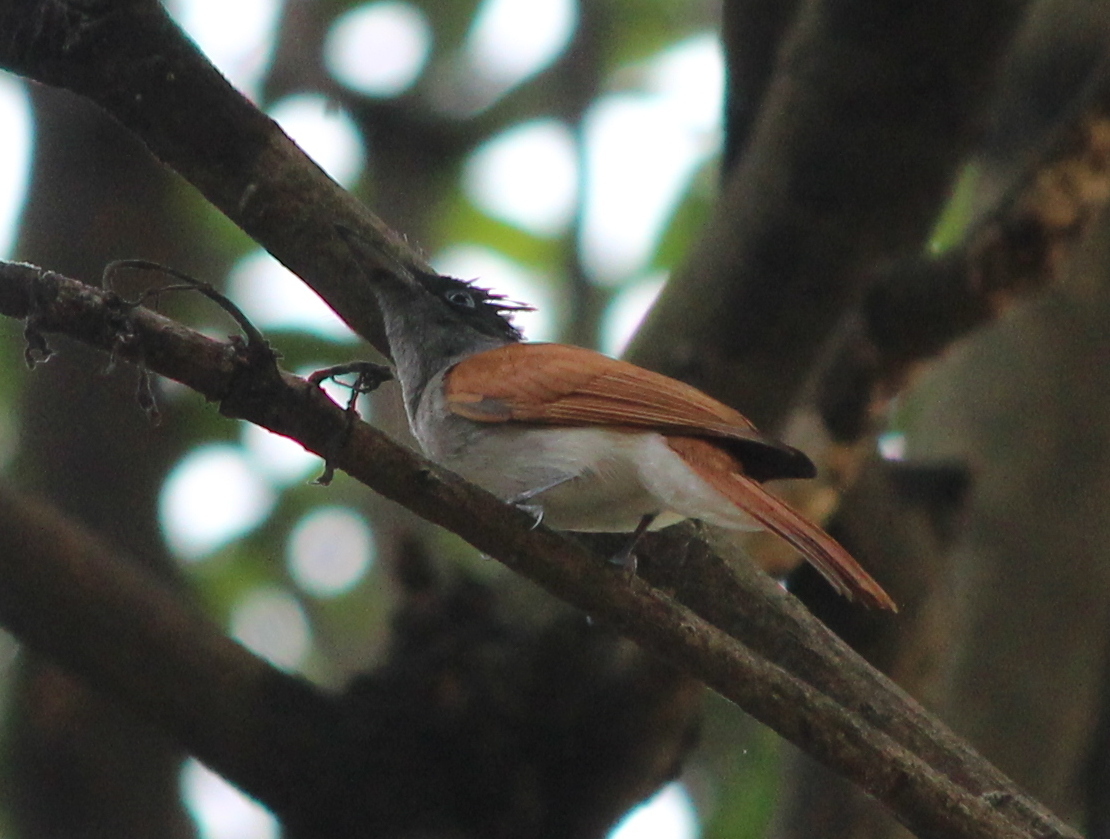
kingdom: Animalia
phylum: Chordata
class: Aves
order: Passeriformes
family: Monarchidae
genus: Terpsiphone
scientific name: Terpsiphone paradisi
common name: Indian paradise flycatcher
